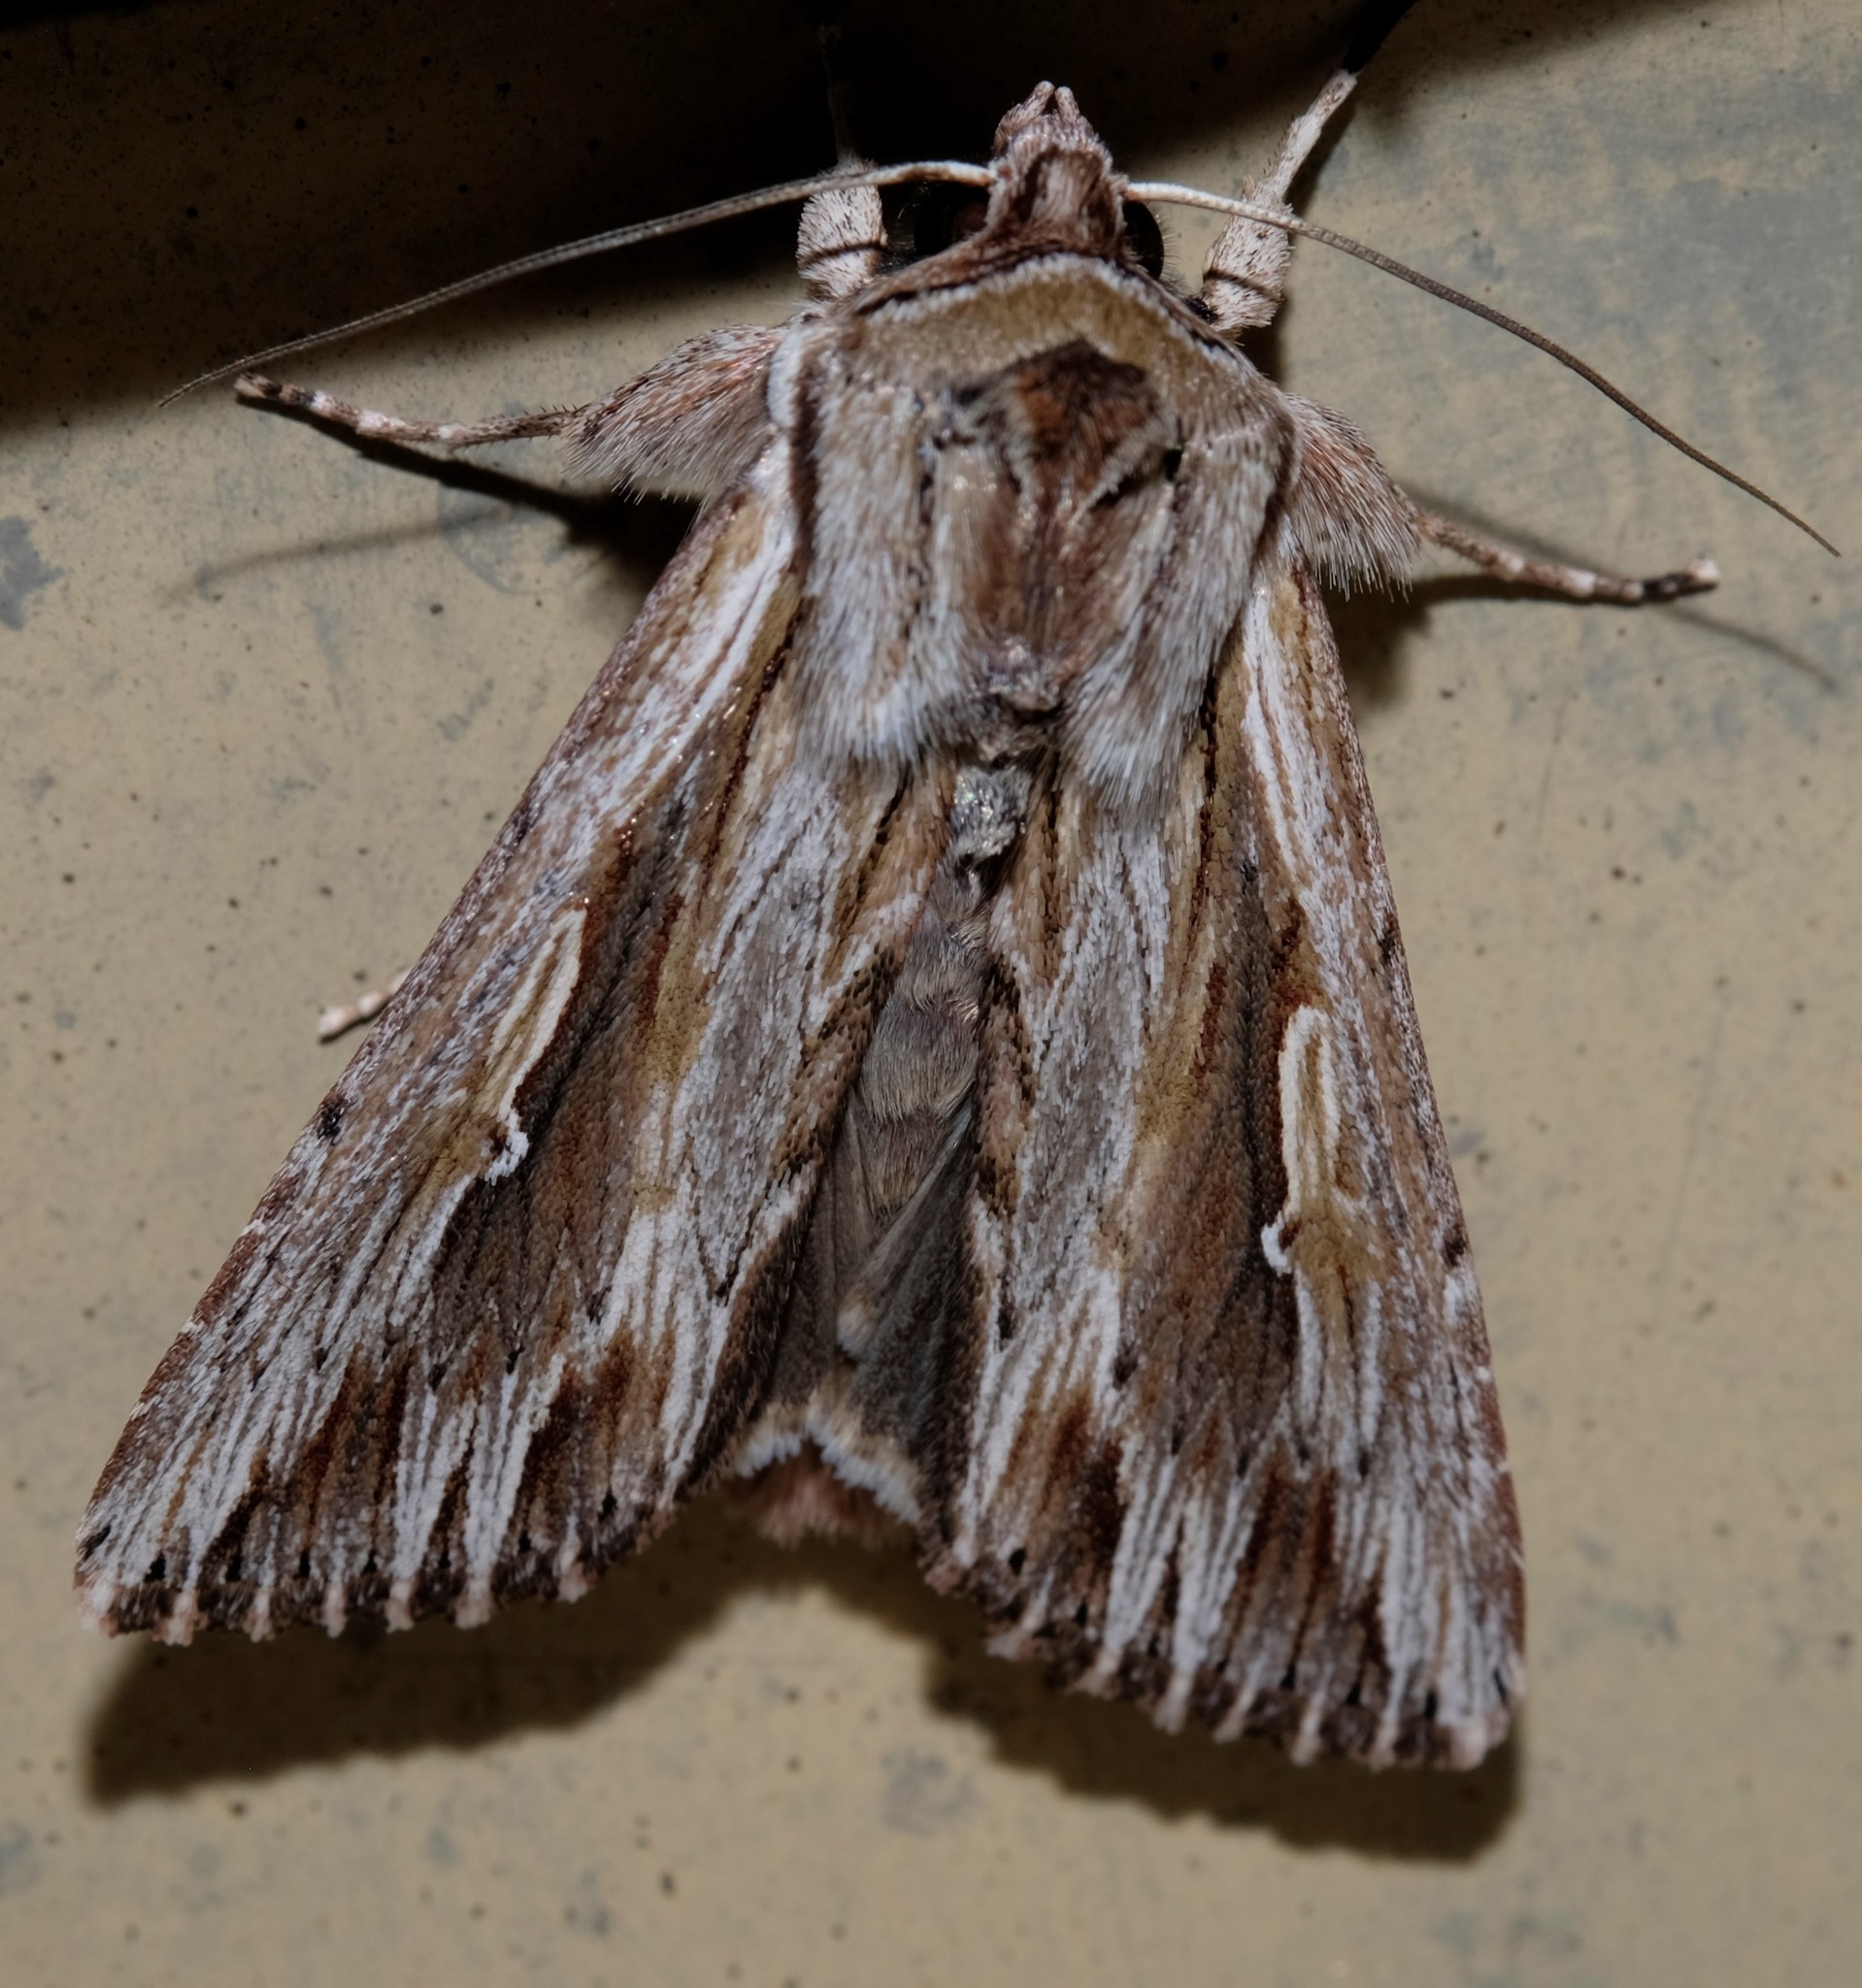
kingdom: Animalia
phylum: Arthropoda
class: Insecta
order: Lepidoptera
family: Noctuidae
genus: Persectania
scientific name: Persectania ewingii
